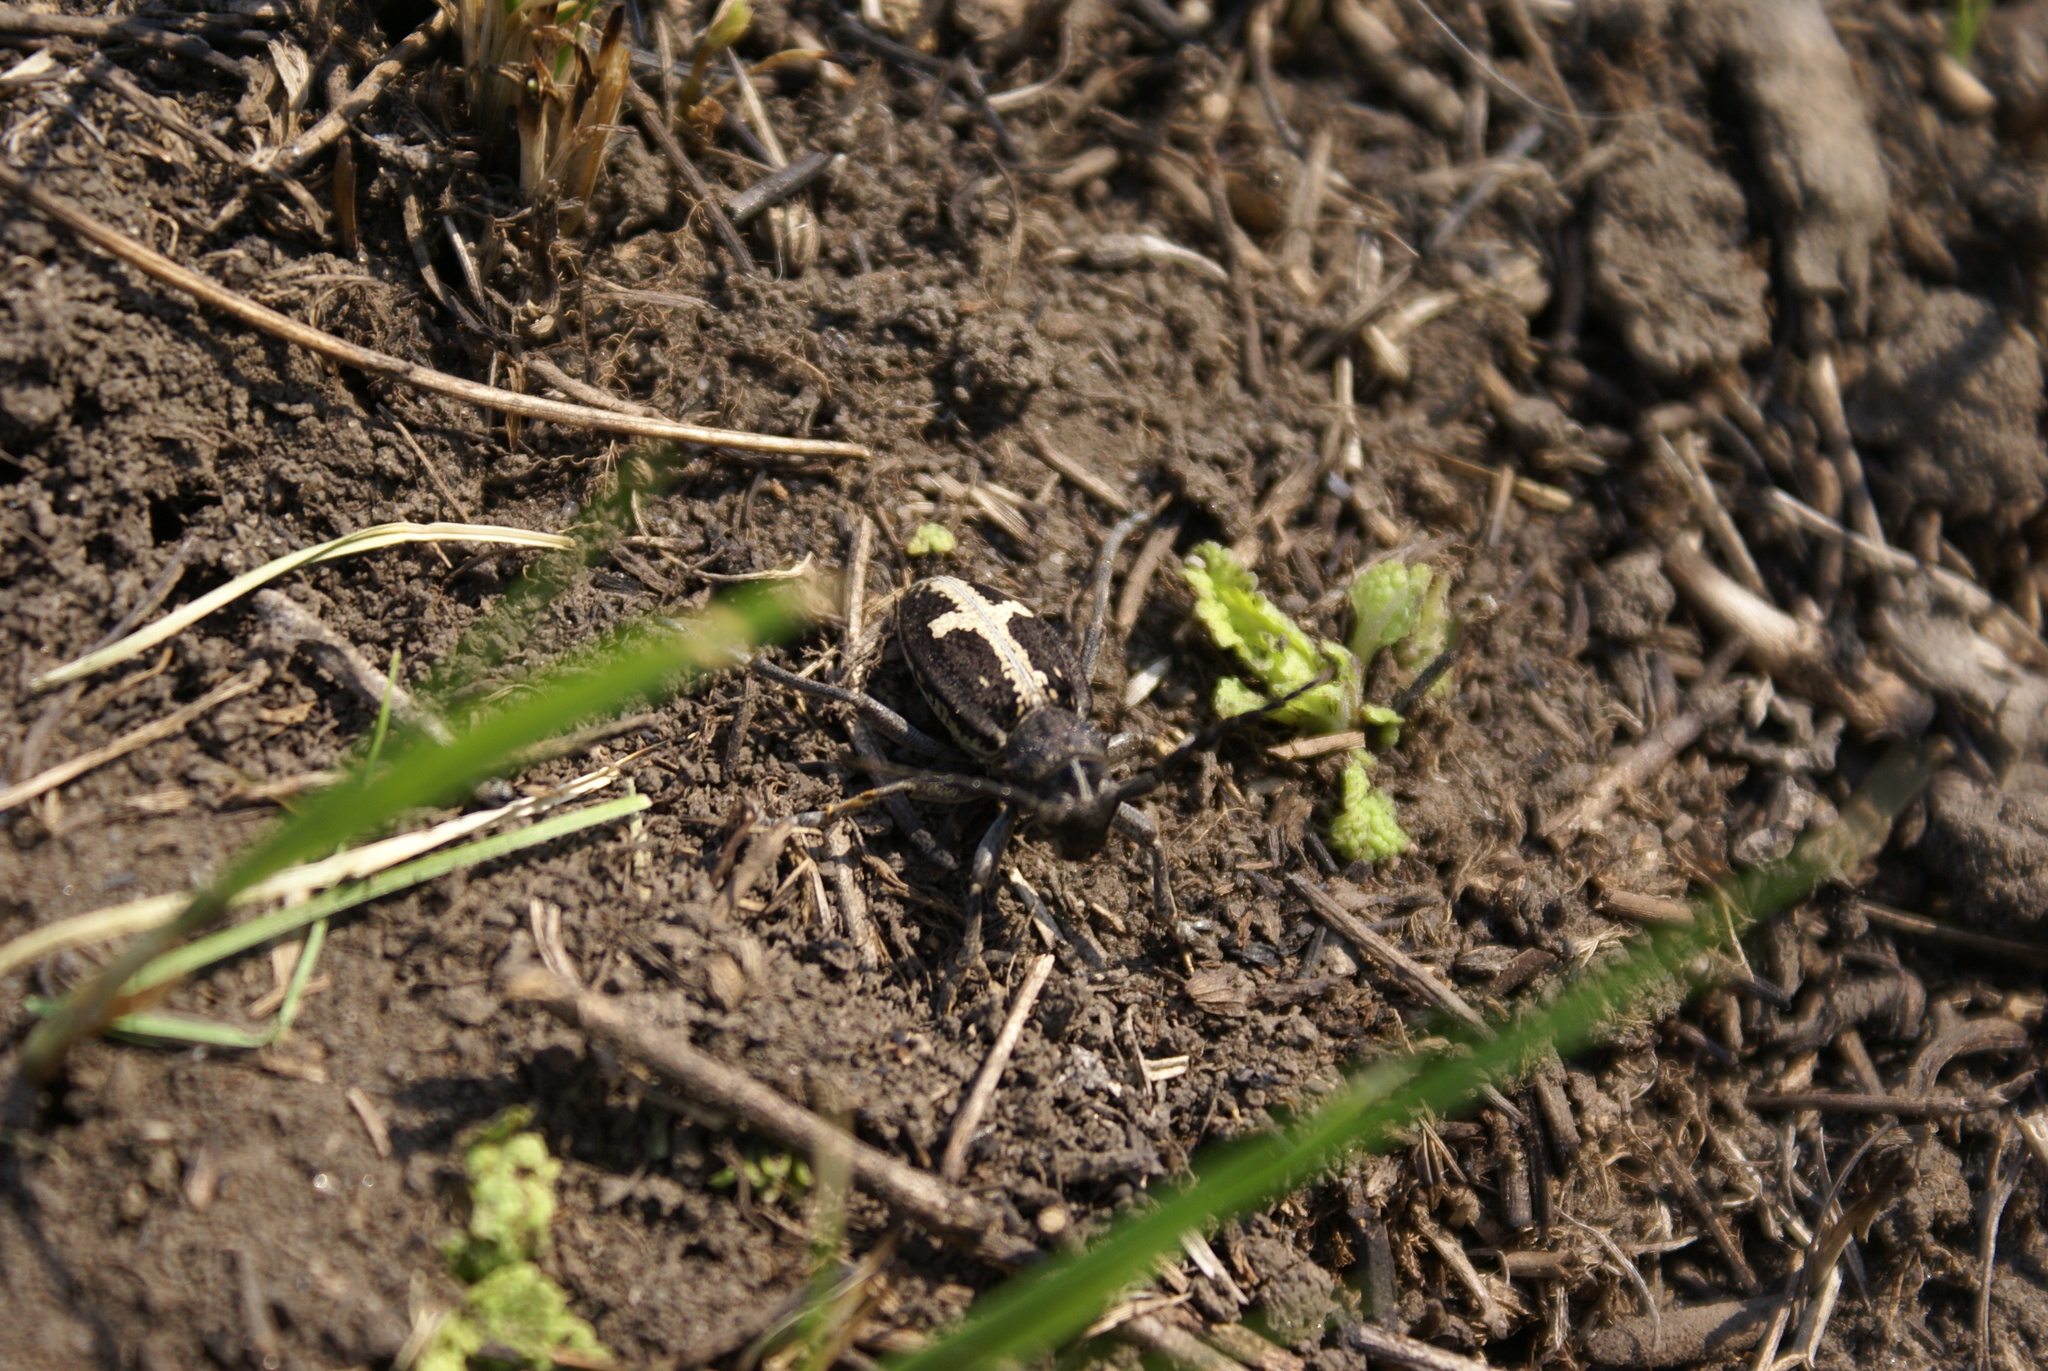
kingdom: Animalia
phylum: Arthropoda
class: Insecta
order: Coleoptera
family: Cerambycidae
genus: Dorcadion
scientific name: Dorcadion equestre
